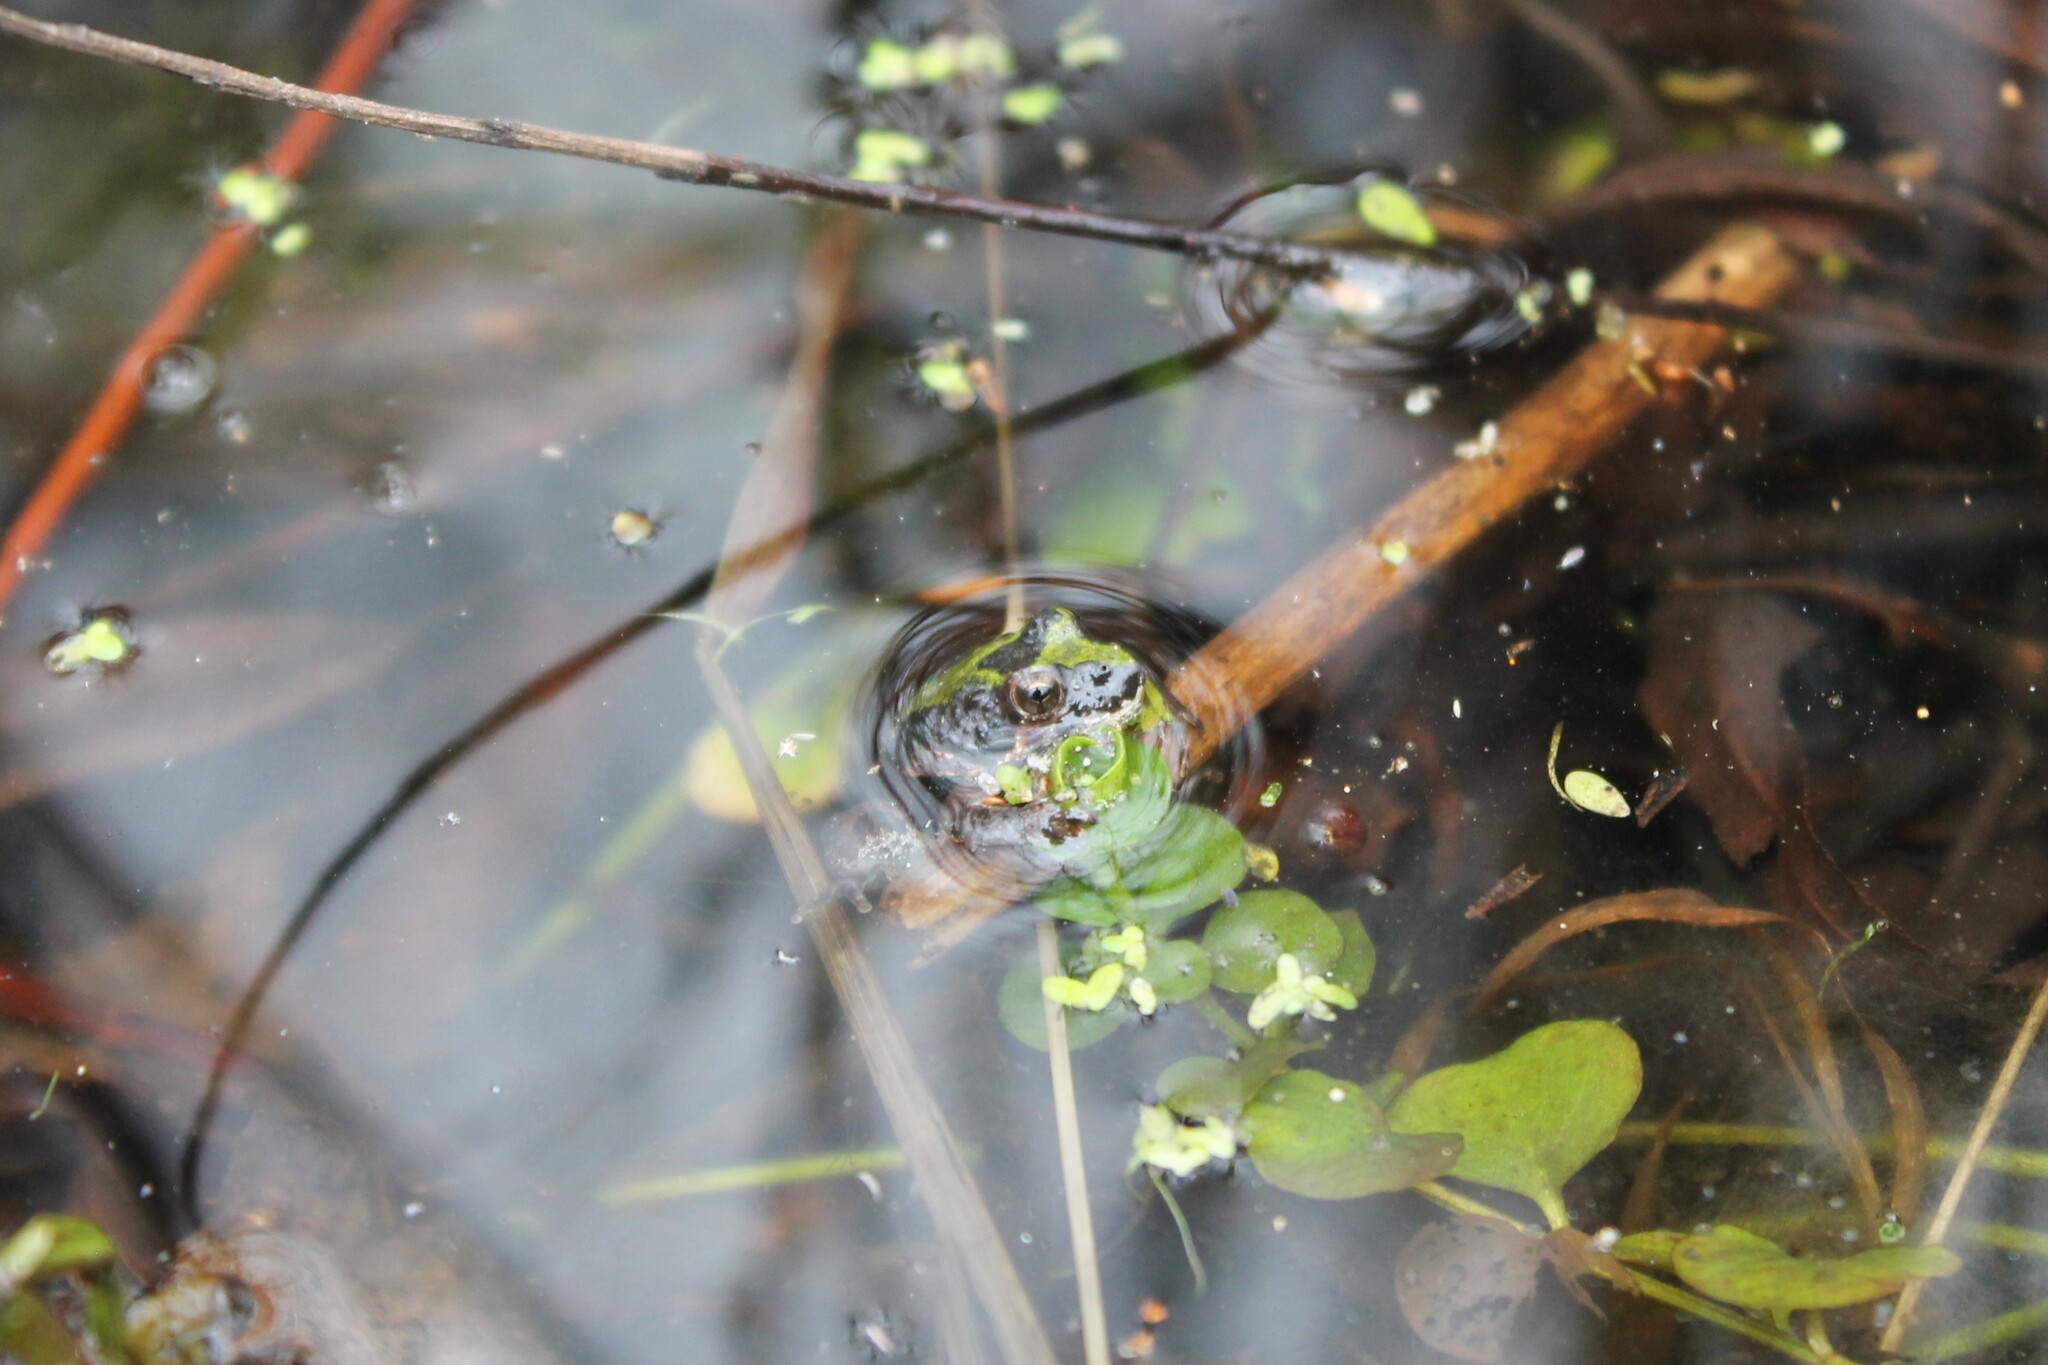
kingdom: Animalia
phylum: Chordata
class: Amphibia
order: Anura
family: Hylidae
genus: Acris
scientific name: Acris crepitans
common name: Northern cricket frog
